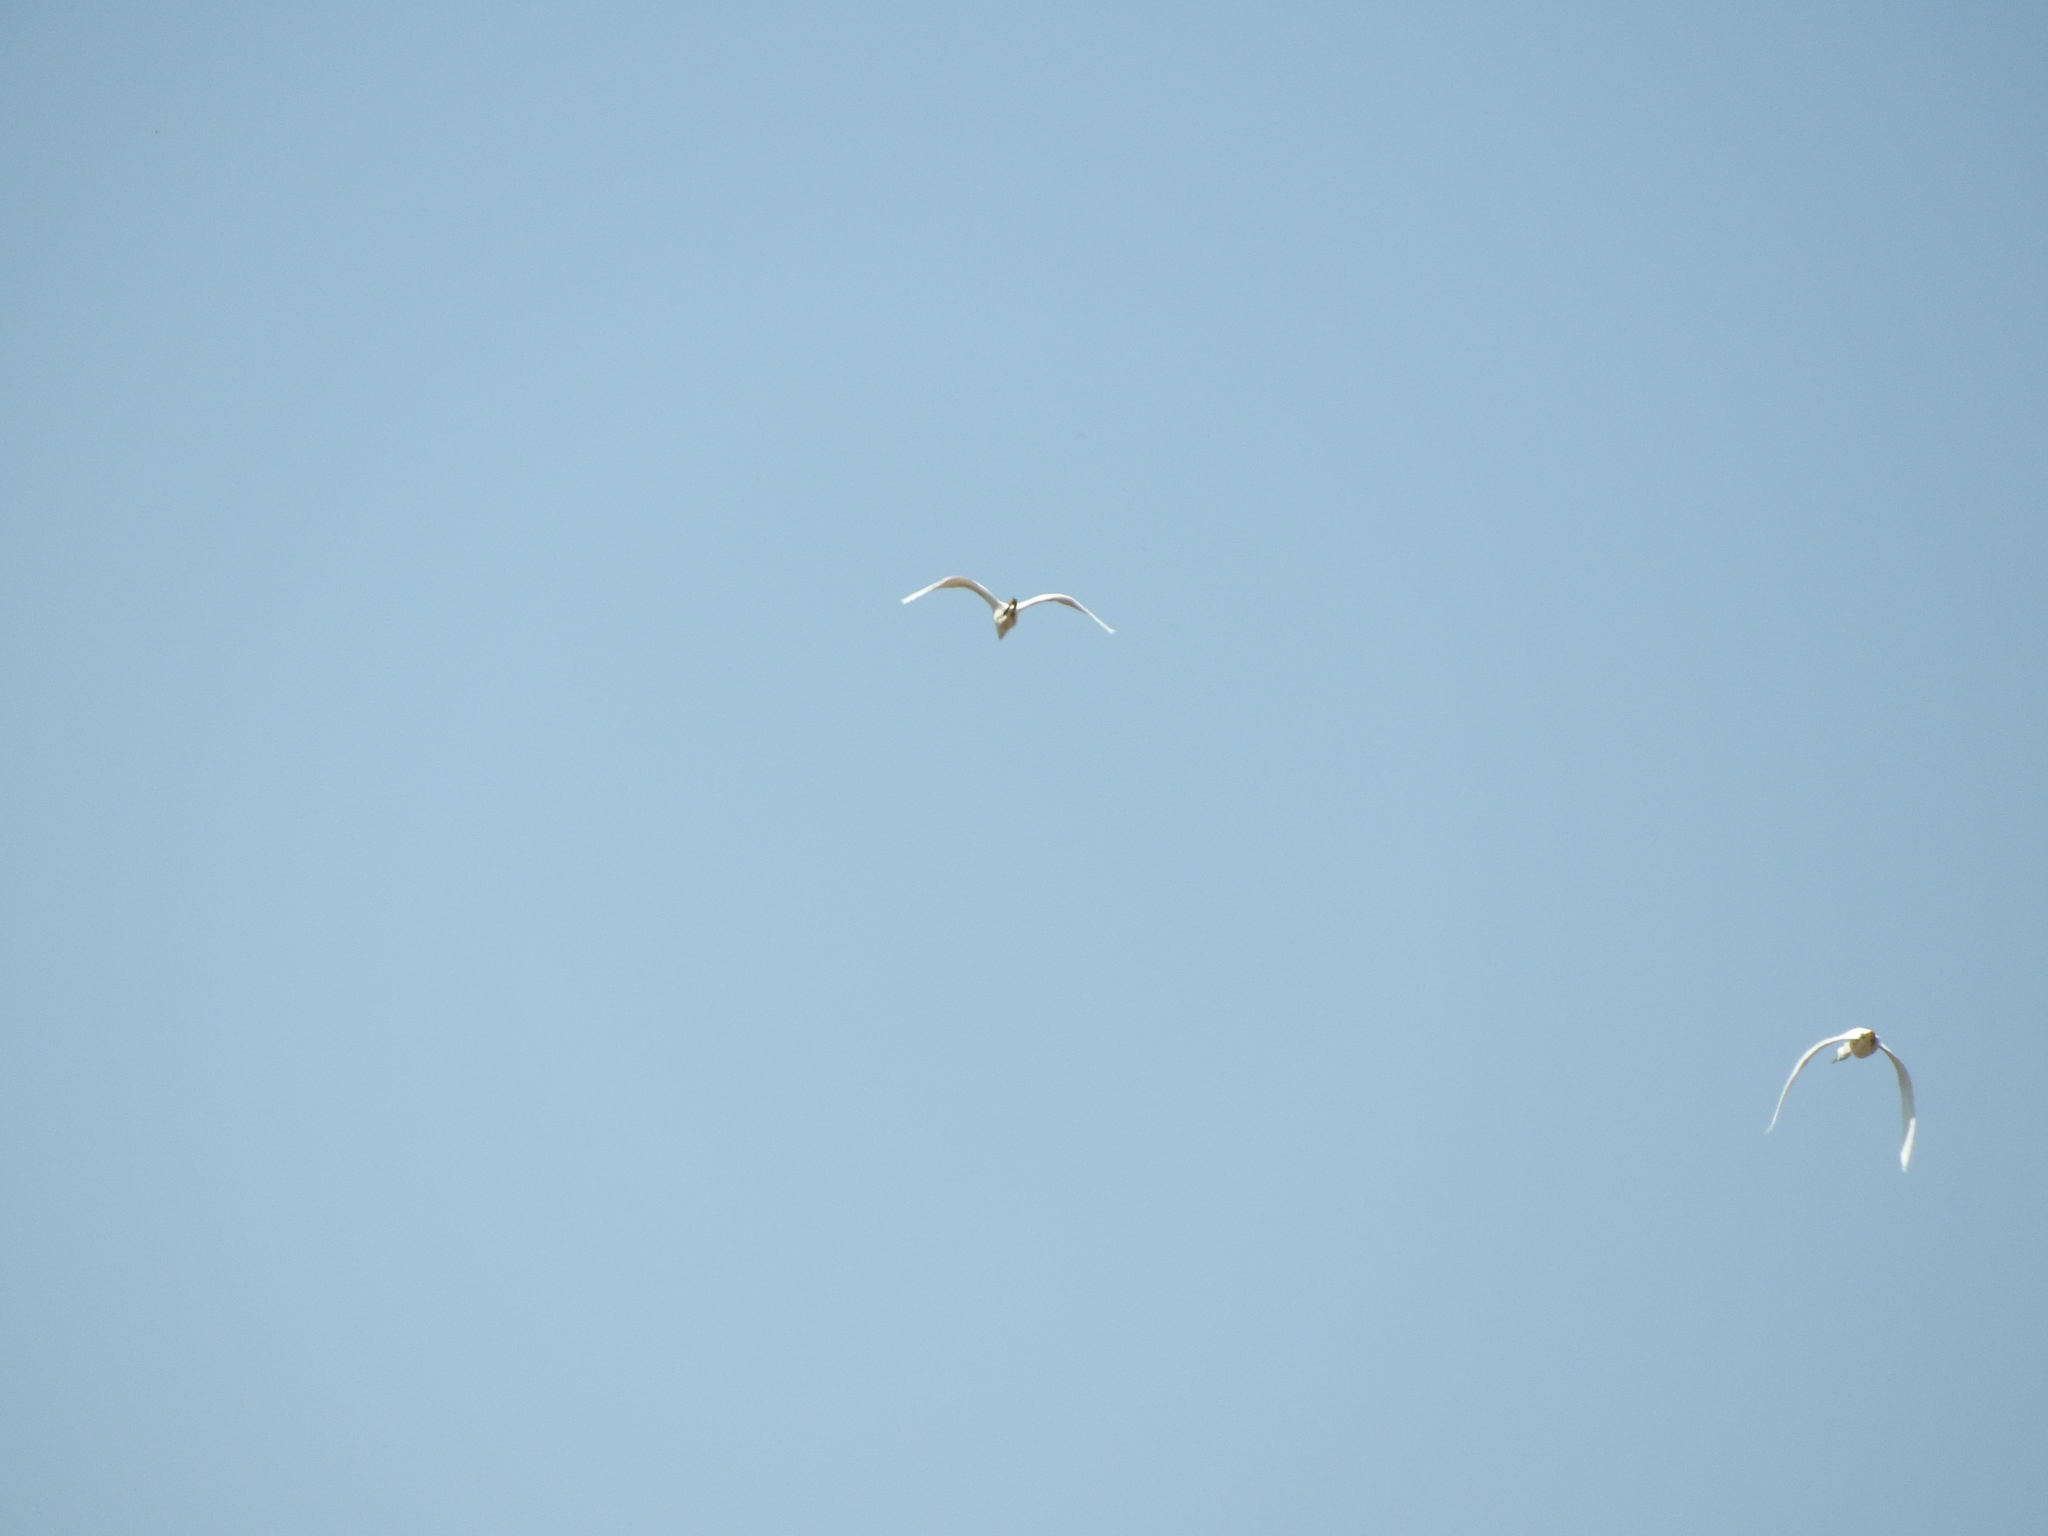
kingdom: Animalia
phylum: Chordata
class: Aves
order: Pelecaniformes
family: Ardeidae
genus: Egretta
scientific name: Egretta
